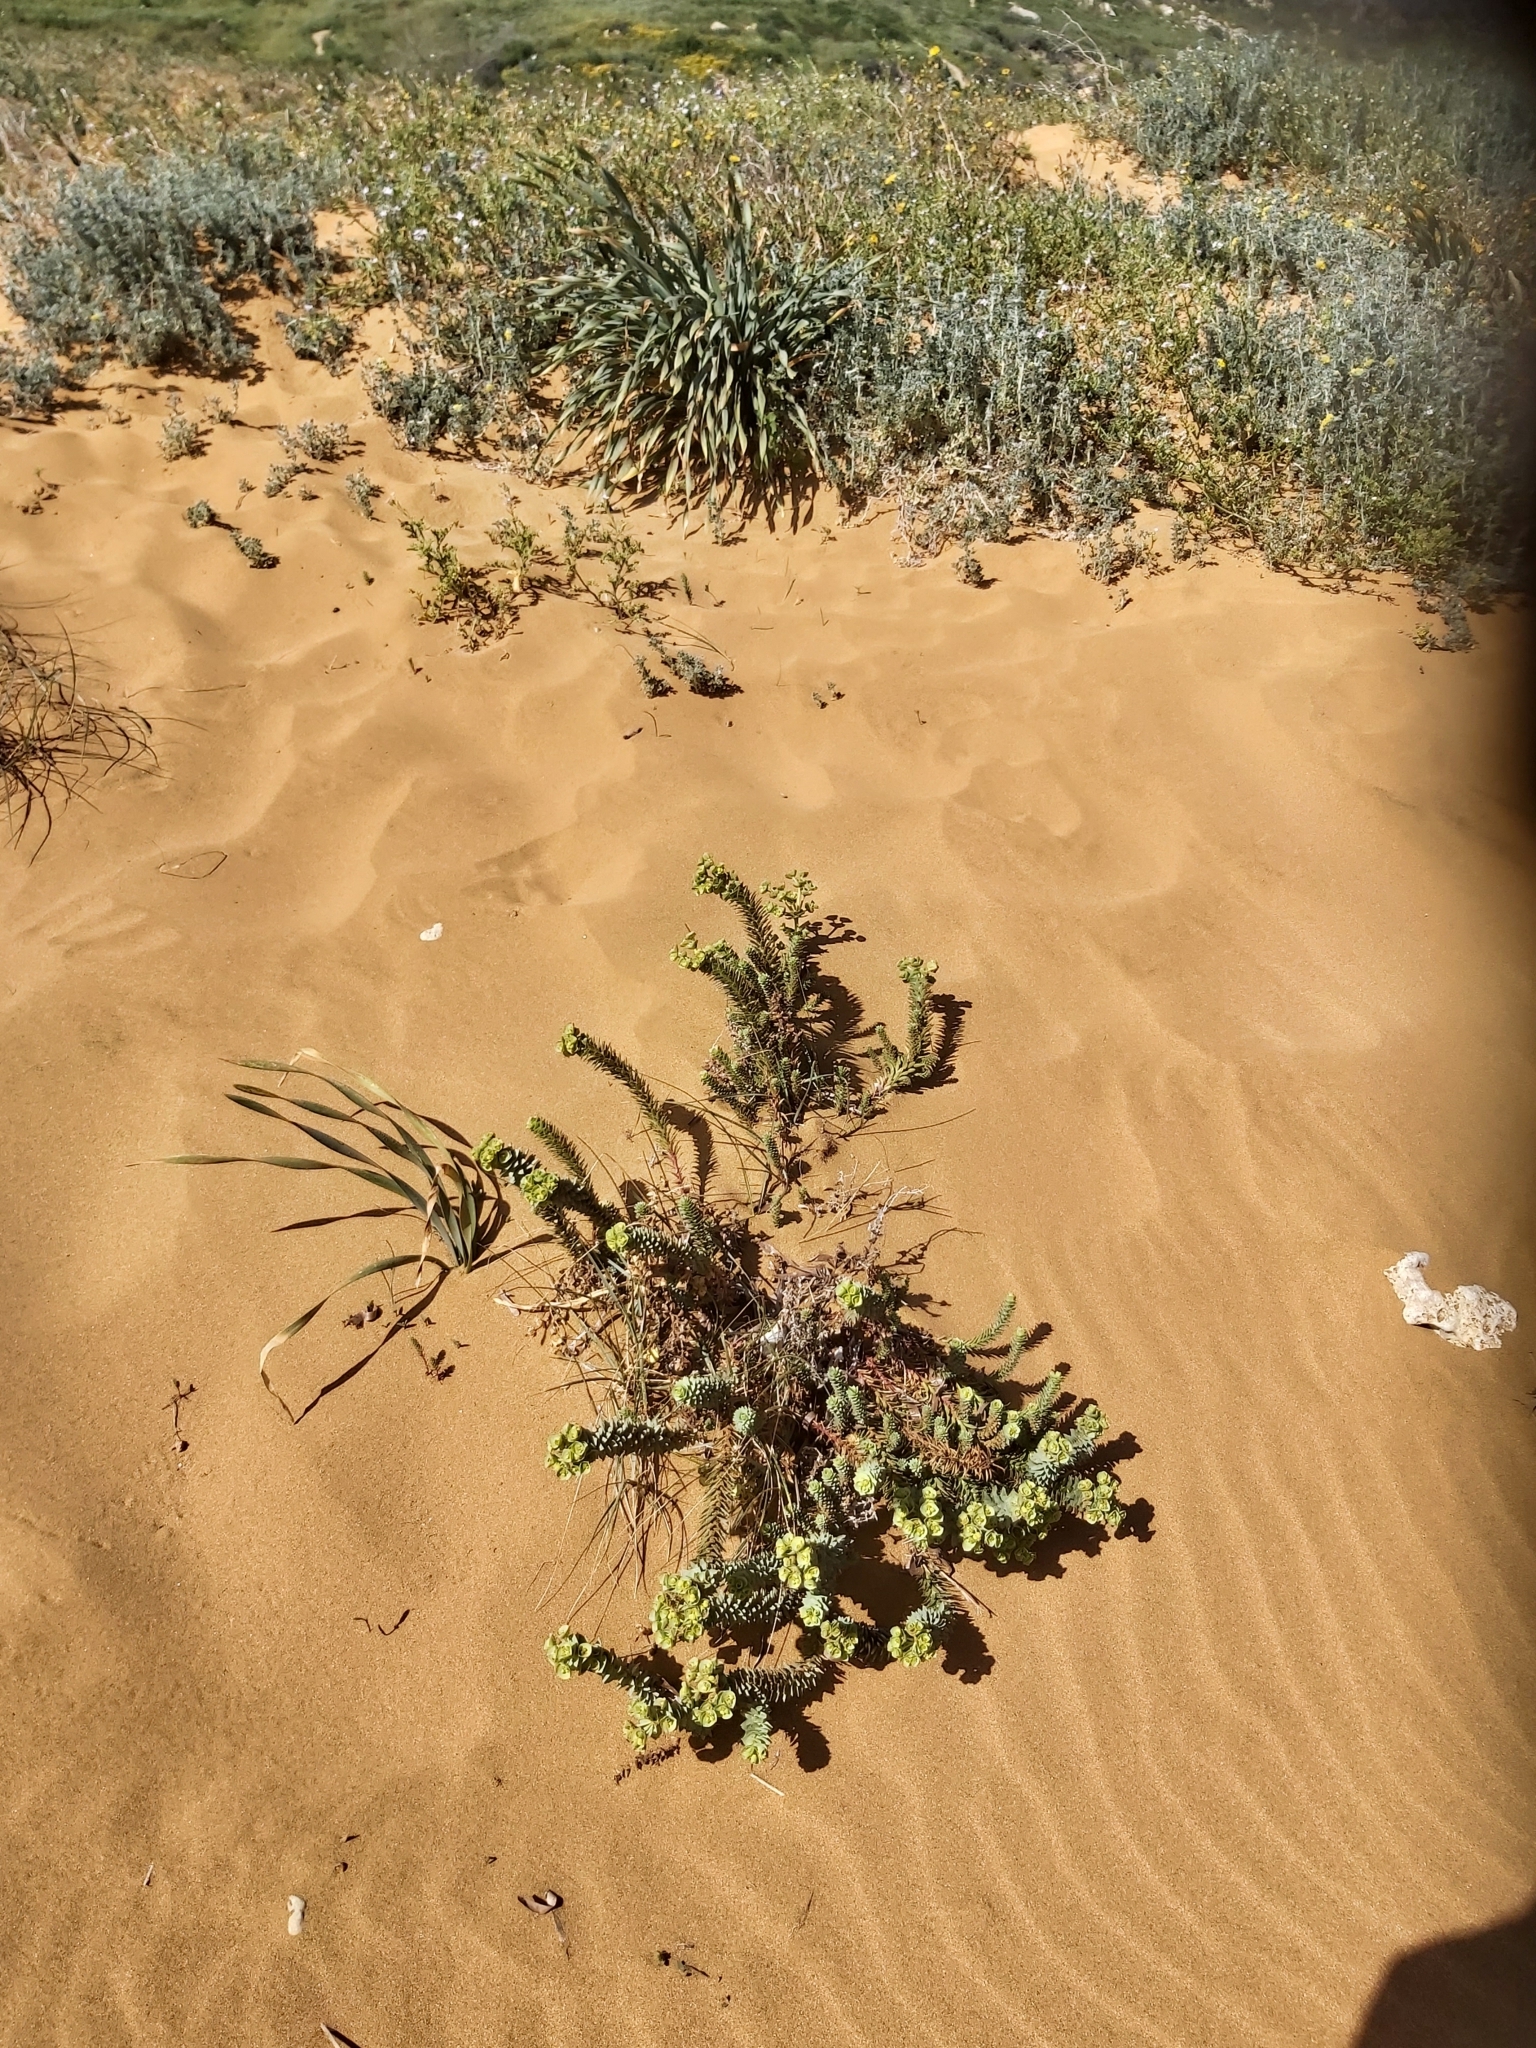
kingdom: Plantae
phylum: Tracheophyta
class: Magnoliopsida
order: Malpighiales
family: Euphorbiaceae
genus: Euphorbia
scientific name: Euphorbia paralias
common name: Sea spurge
